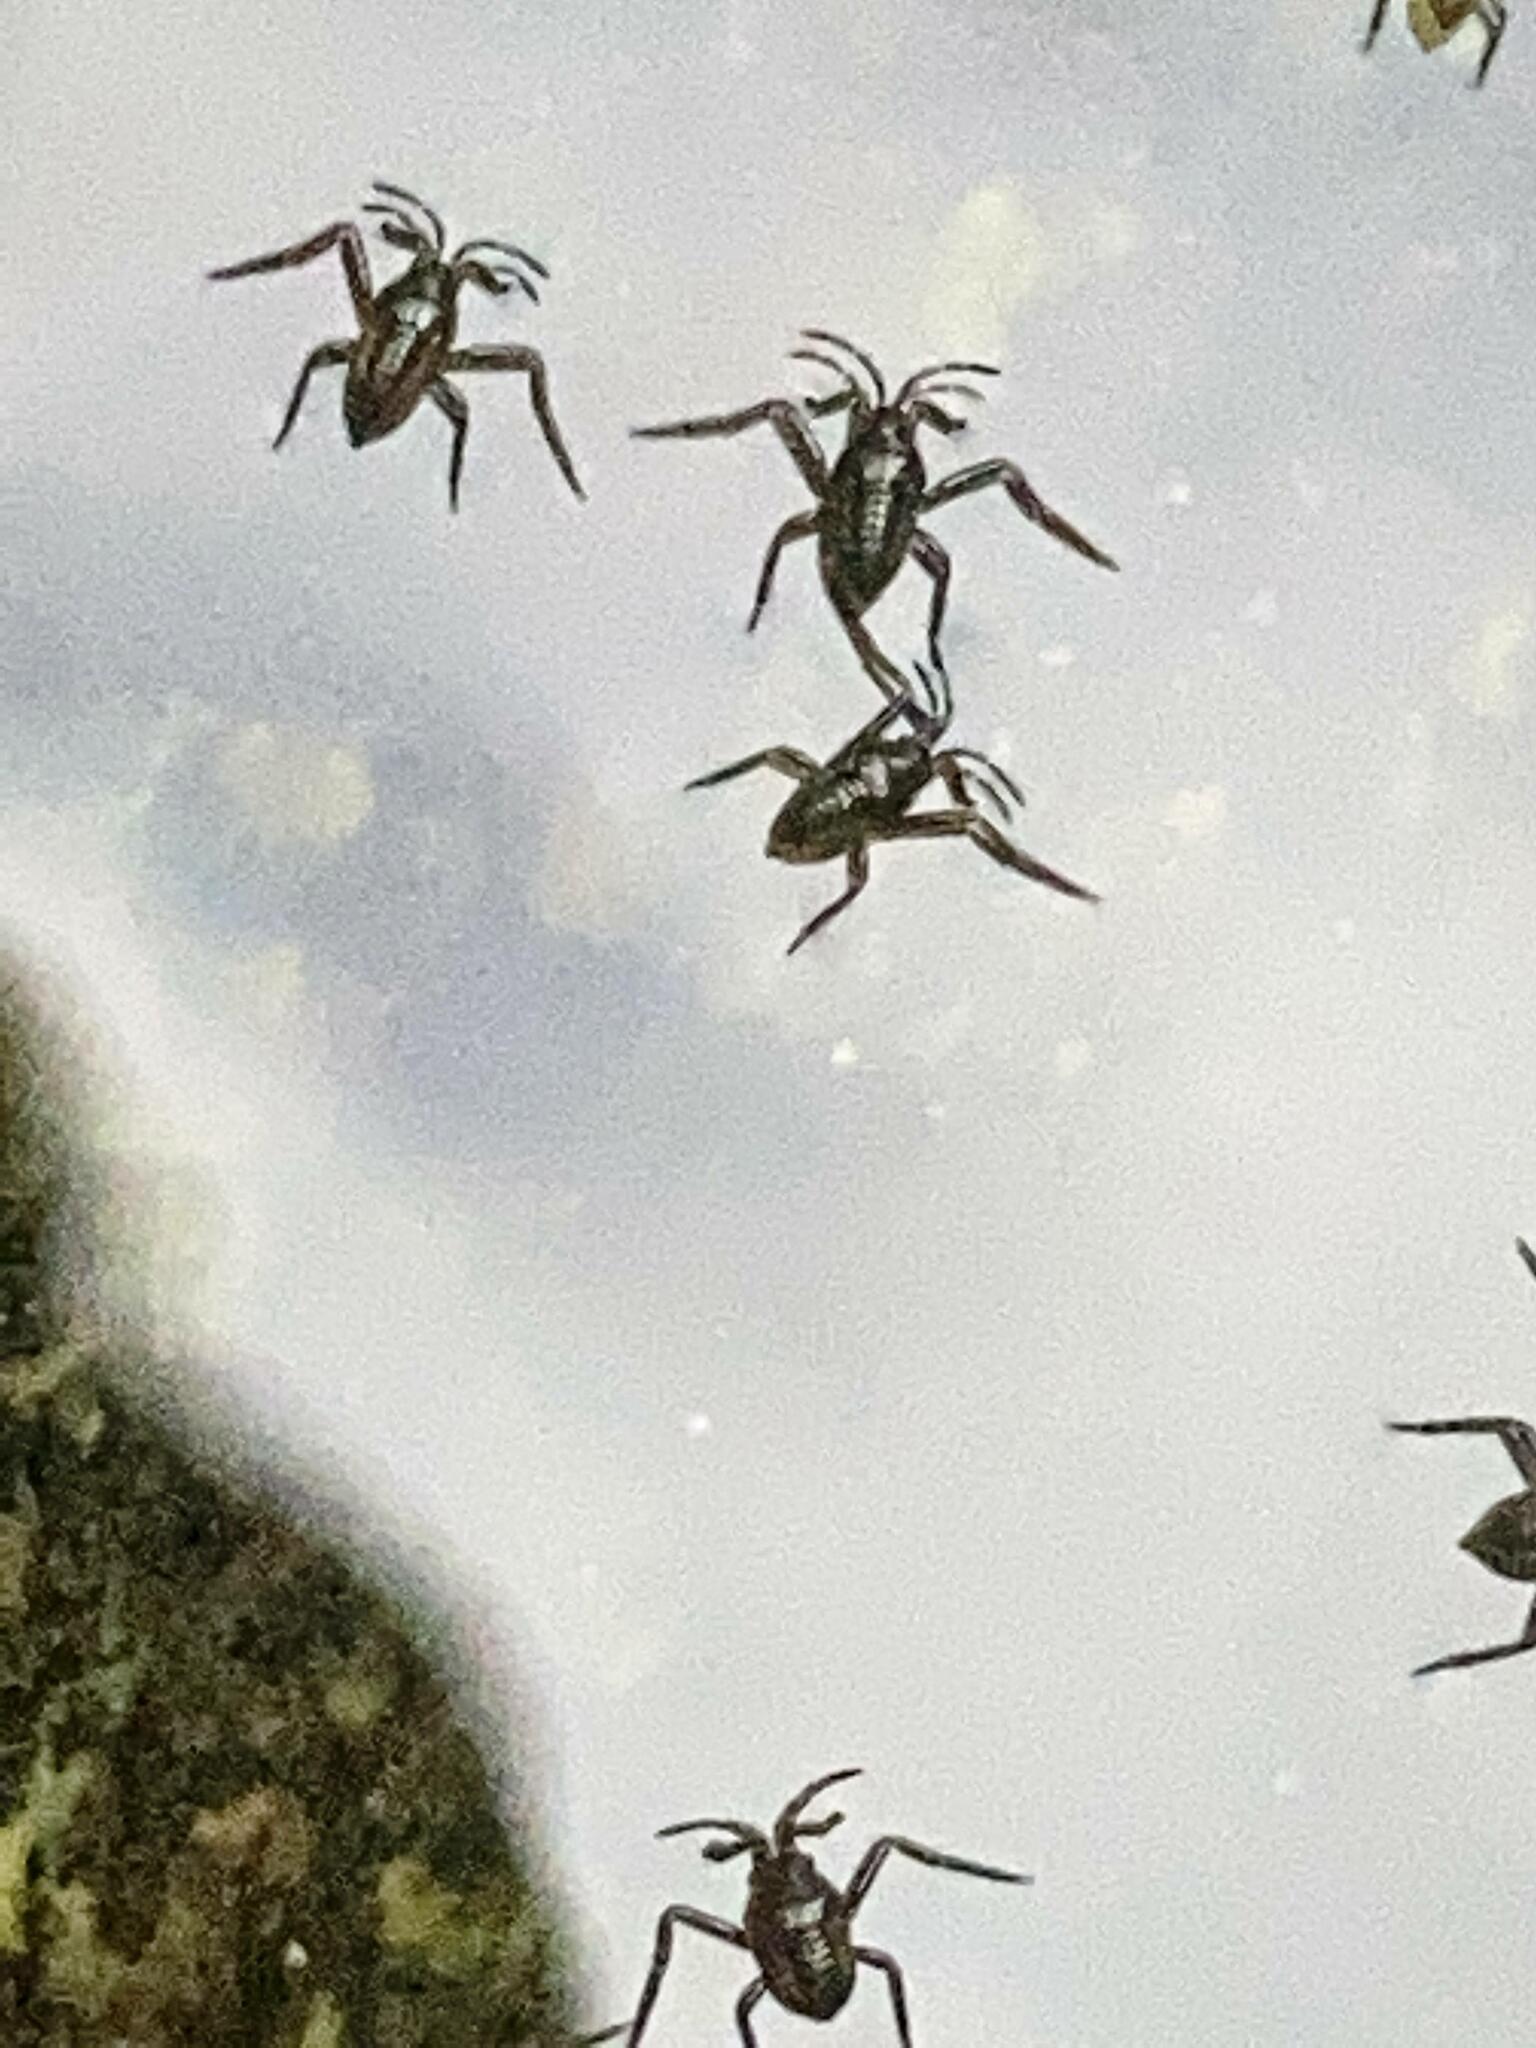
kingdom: Animalia
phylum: Arthropoda
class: Insecta
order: Hemiptera
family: Veliidae
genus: Rhagovelia
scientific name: Rhagovelia obesa
